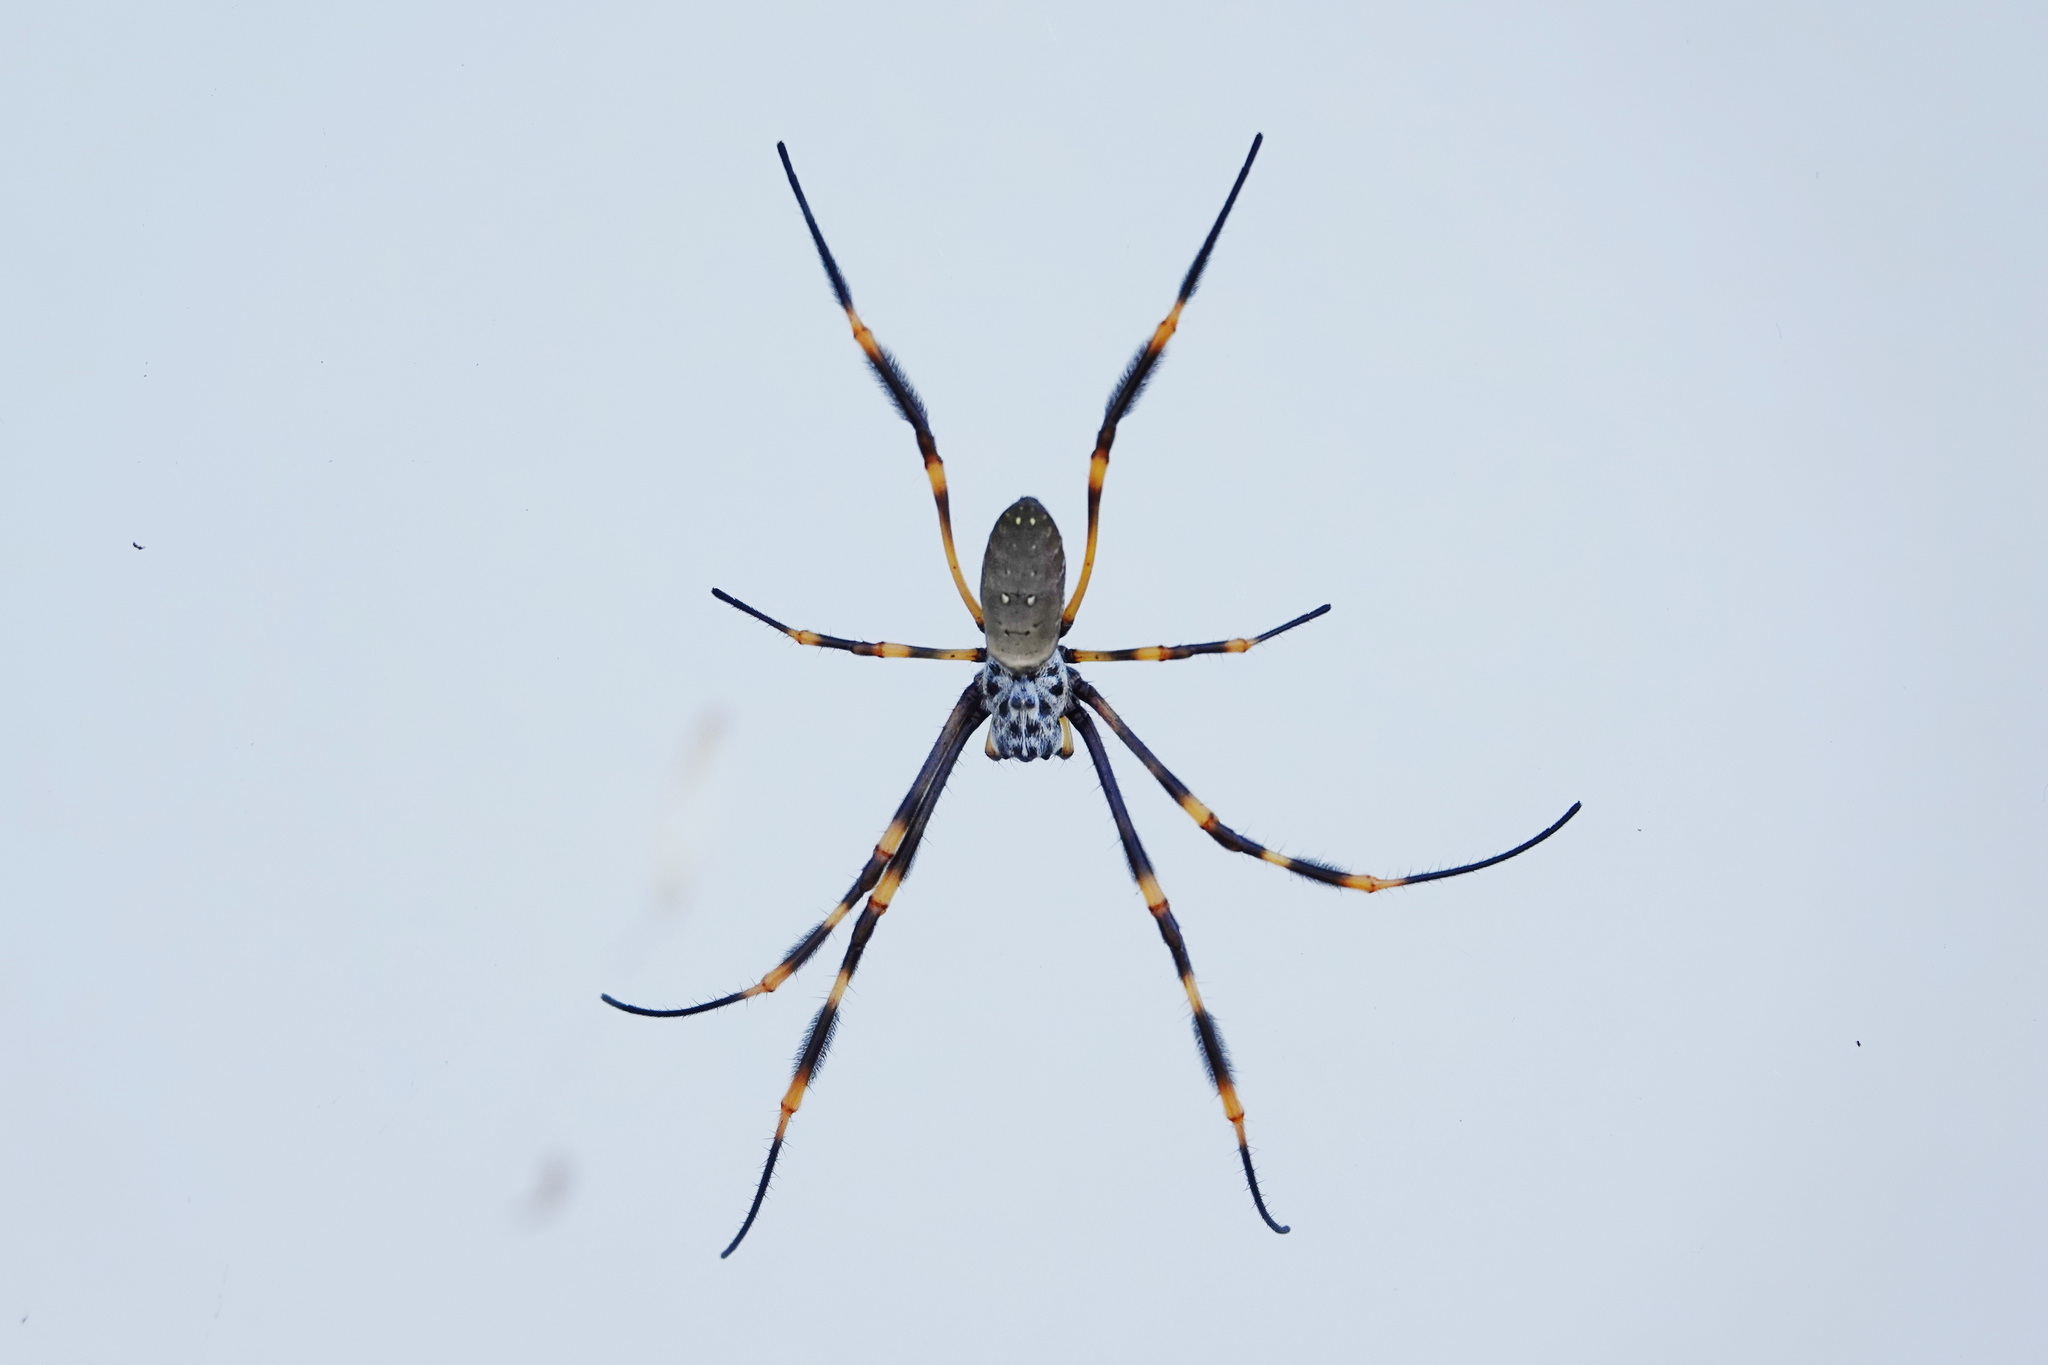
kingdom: Animalia
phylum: Arthropoda
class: Arachnida
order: Araneae
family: Araneidae
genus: Trichonephila
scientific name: Trichonephila plumipes
